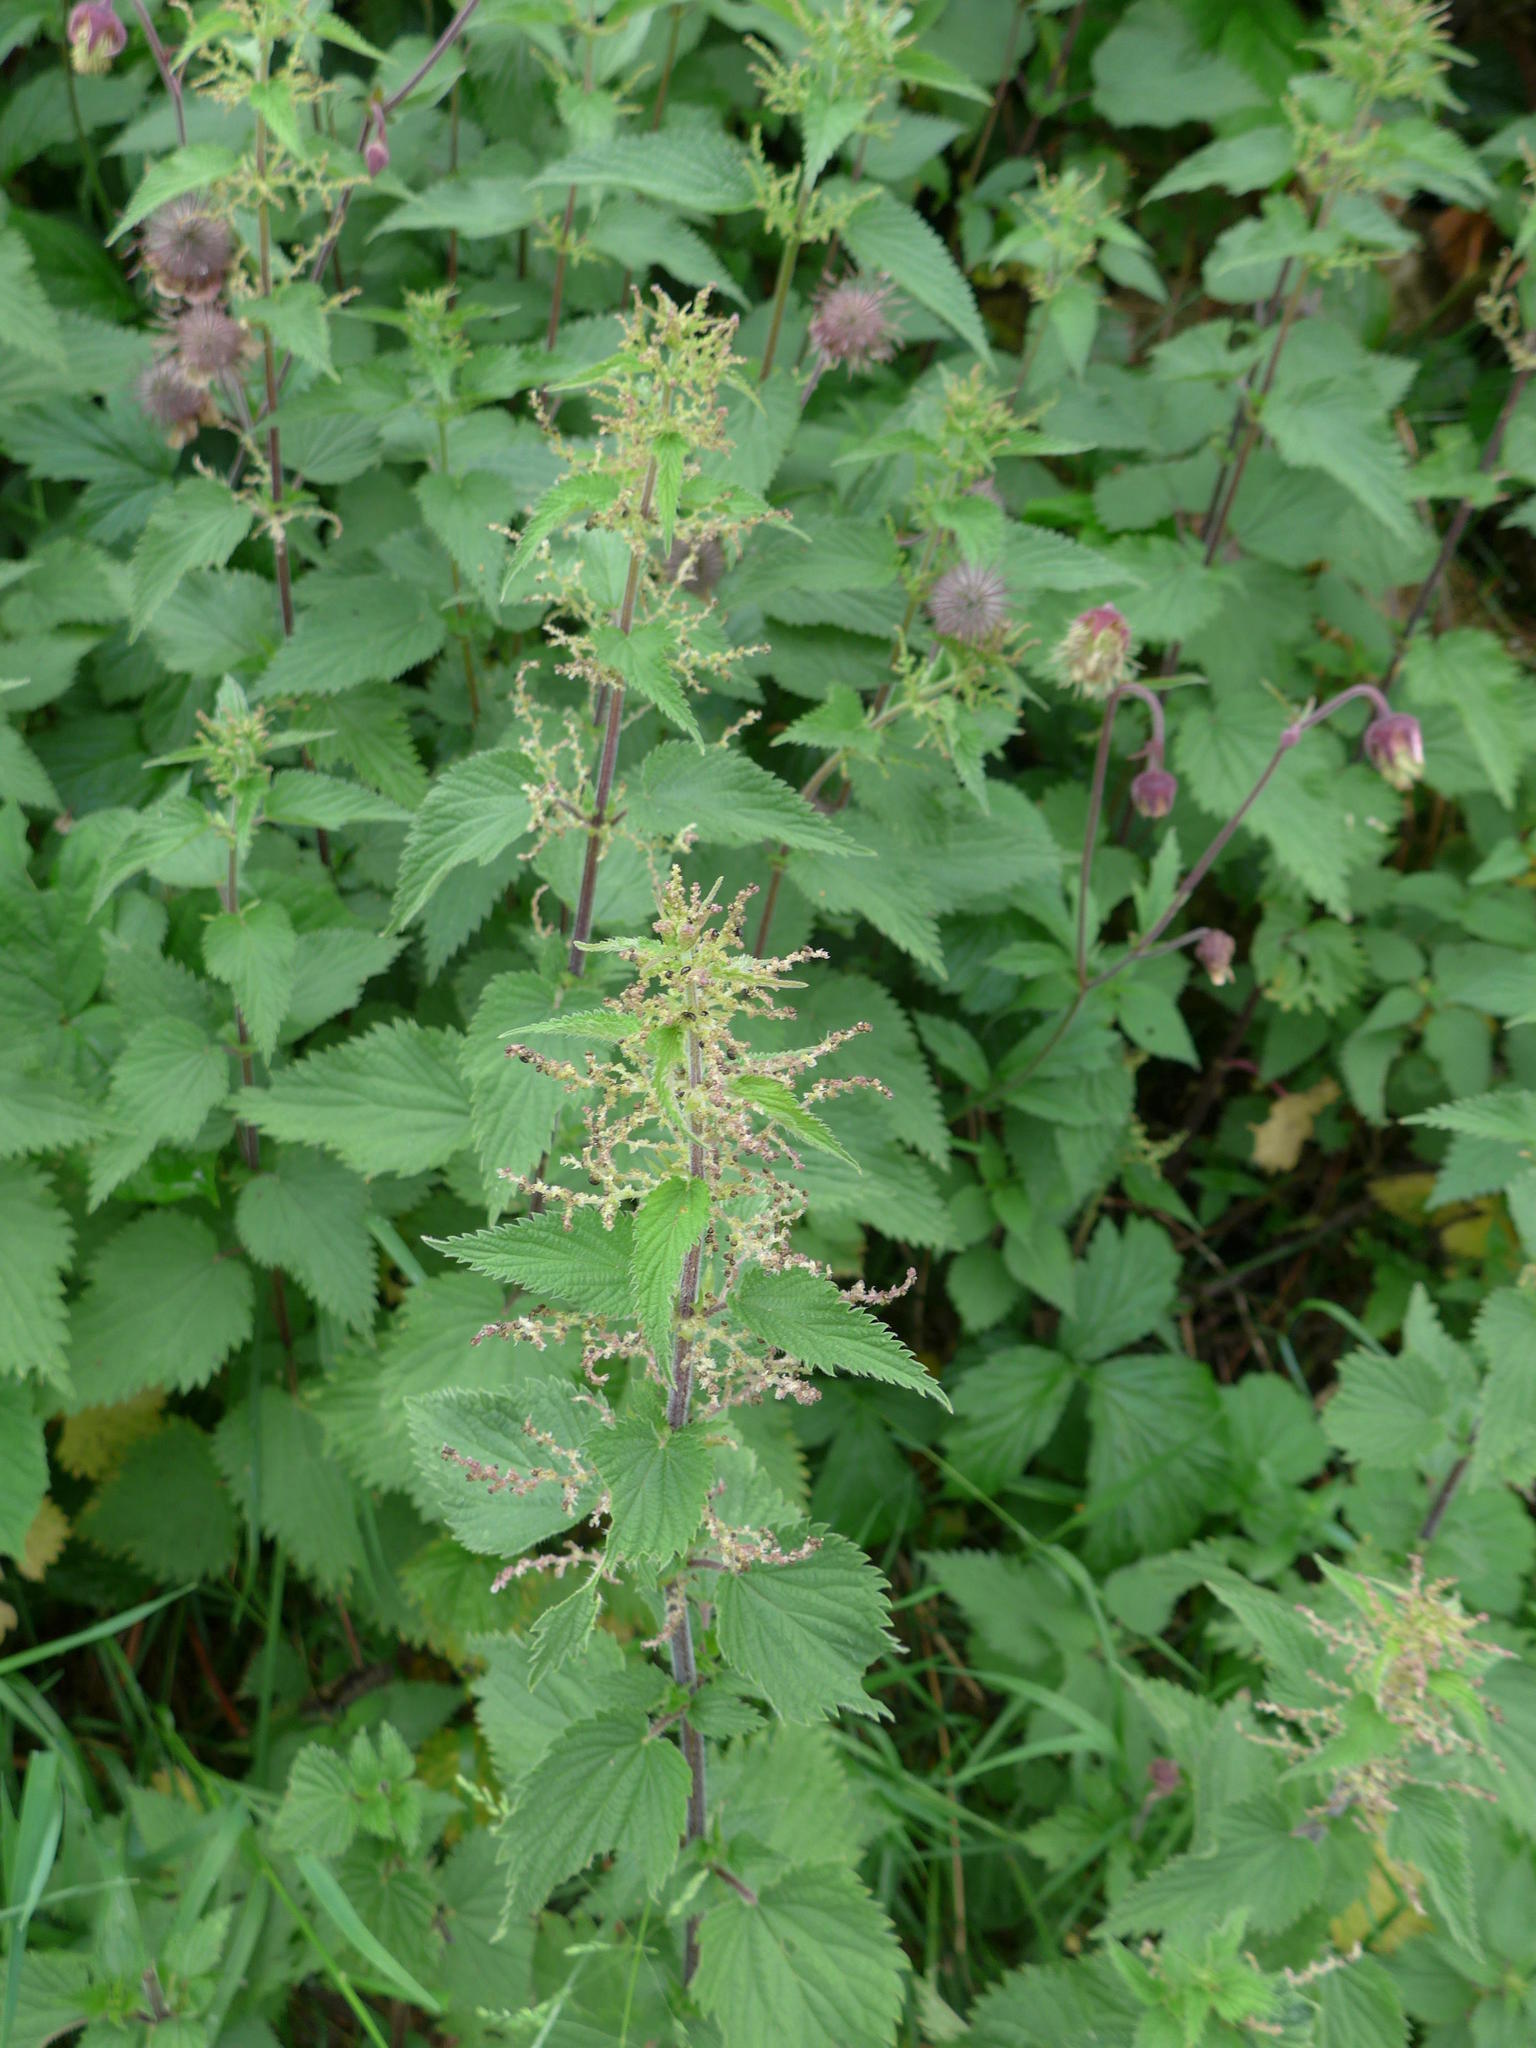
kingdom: Plantae
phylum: Tracheophyta
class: Magnoliopsida
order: Rosales
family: Urticaceae
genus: Urtica
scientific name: Urtica dioica
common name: Common nettle
